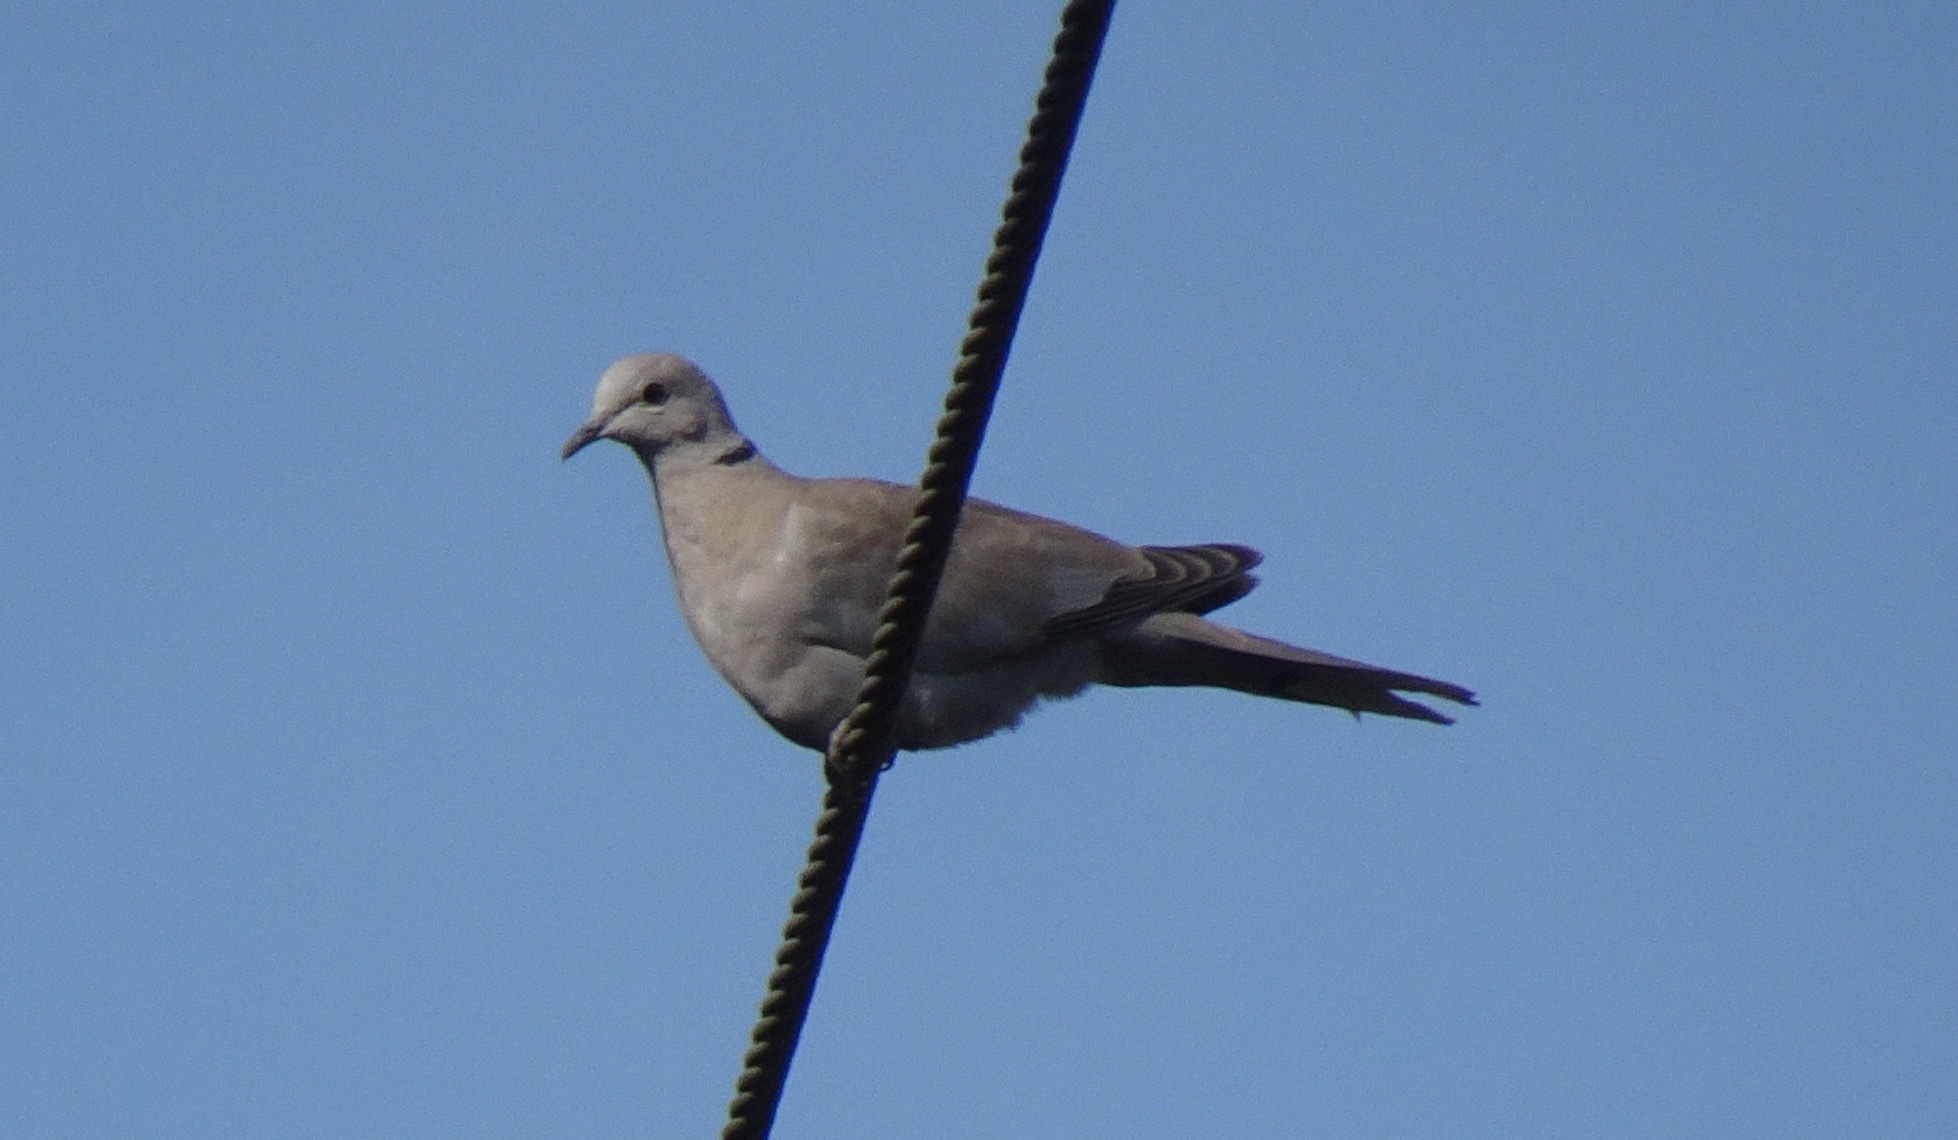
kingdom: Animalia
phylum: Chordata
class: Aves
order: Columbiformes
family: Columbidae
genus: Streptopelia
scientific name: Streptopelia decaocto
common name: Eurasian collared dove
